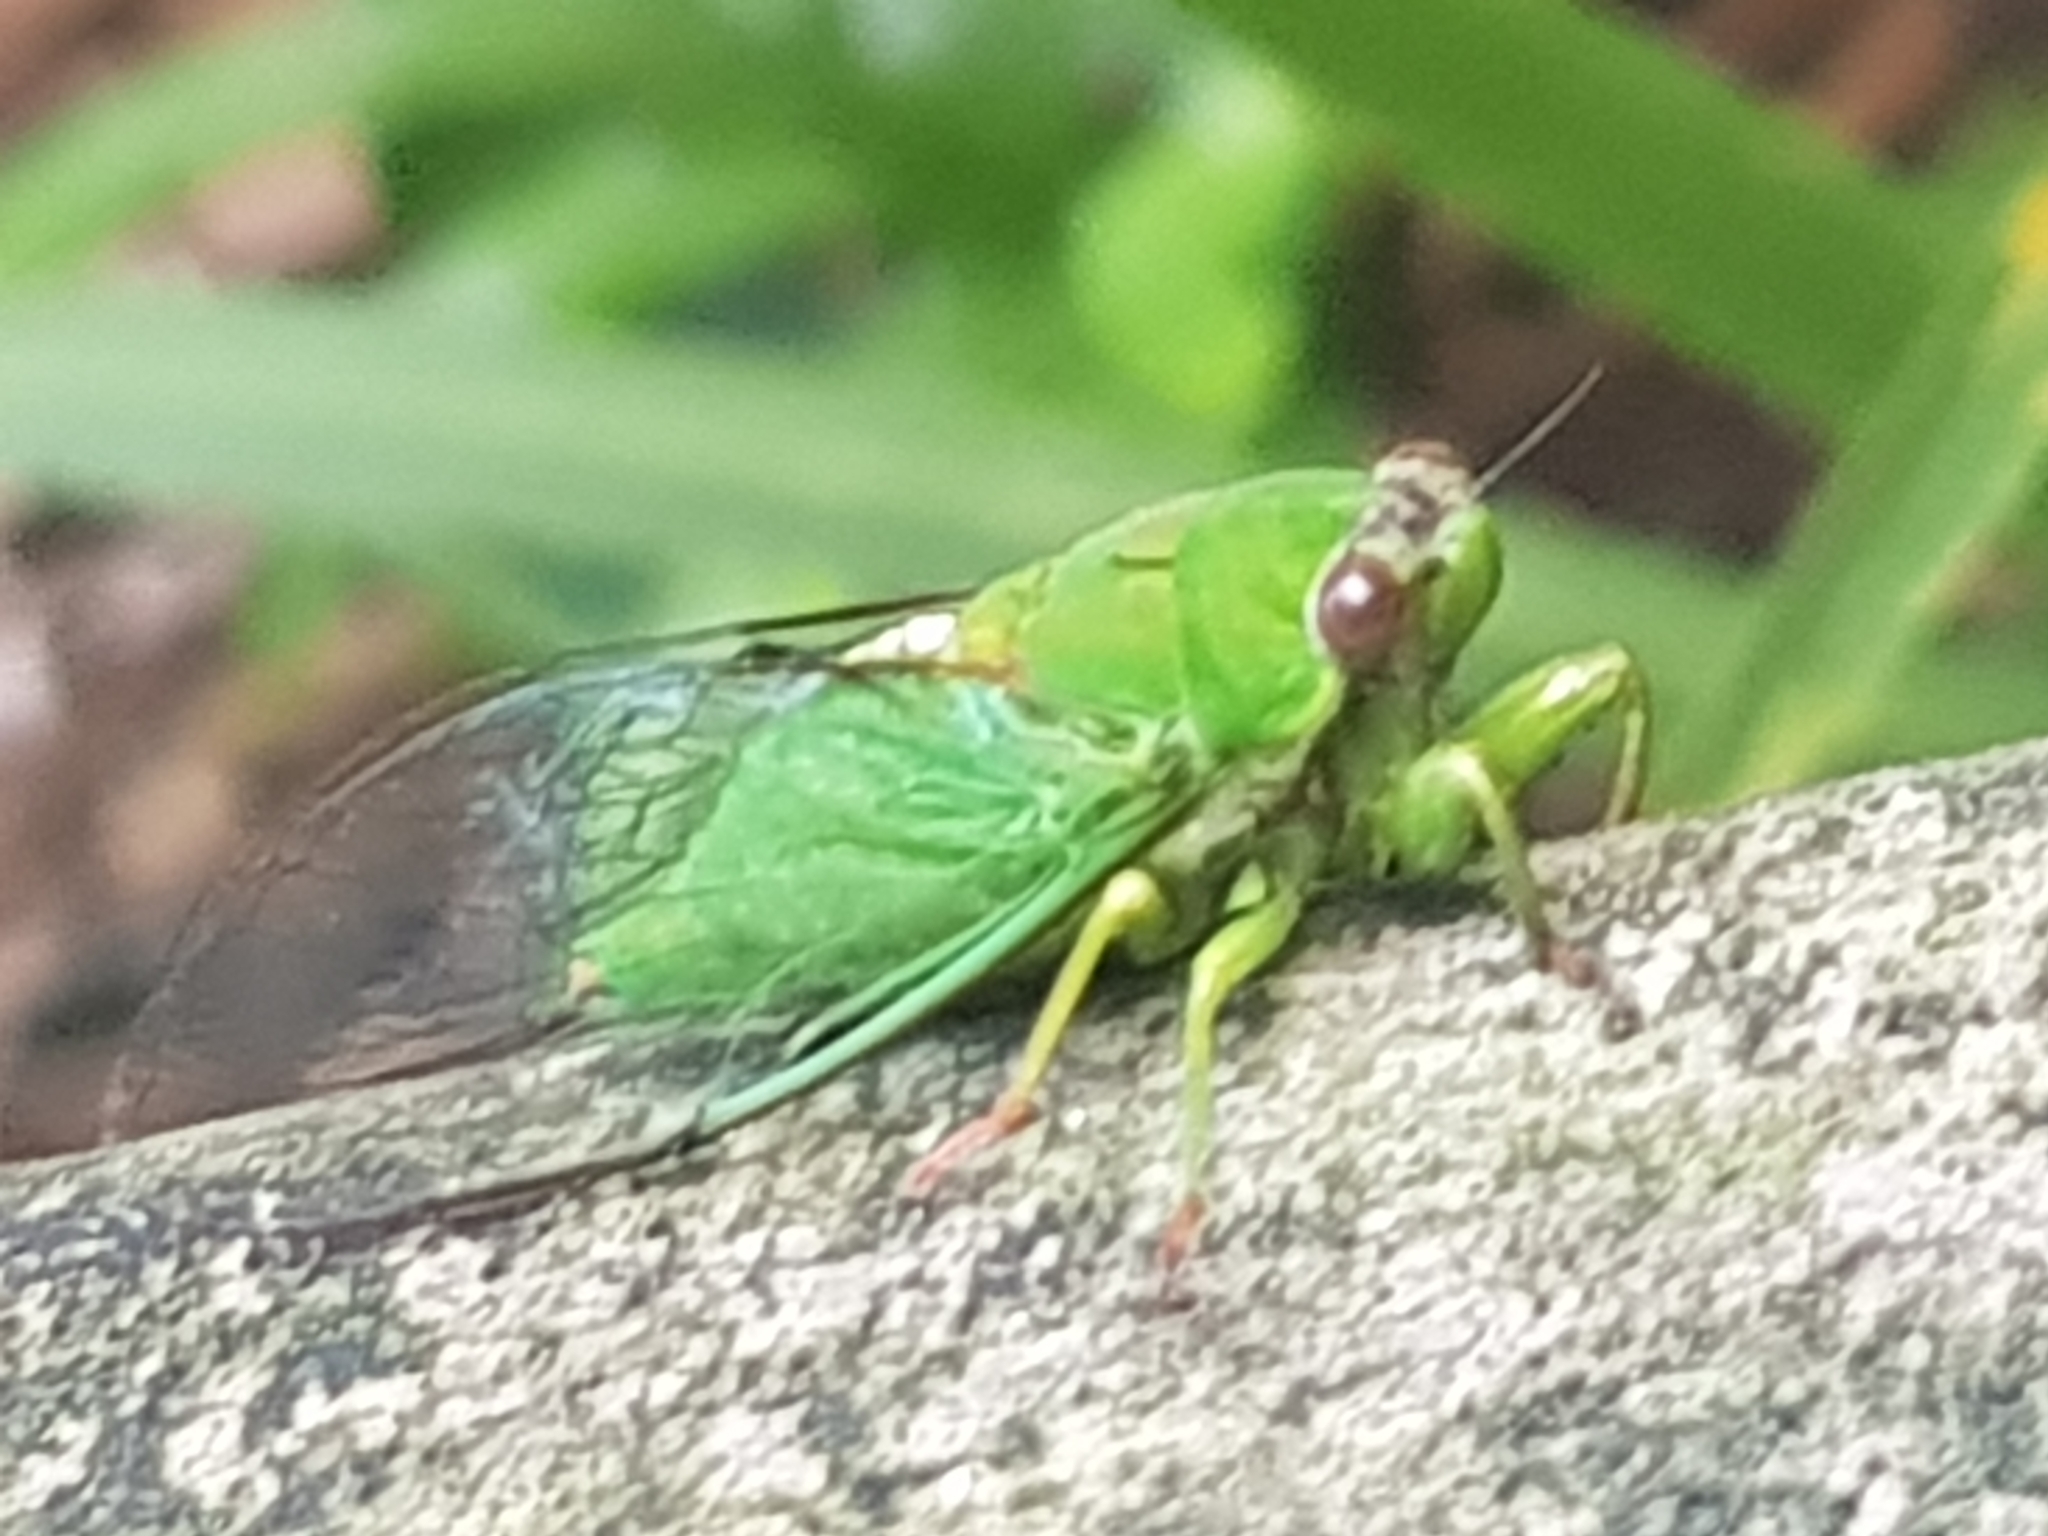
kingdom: Animalia
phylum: Arthropoda
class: Insecta
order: Hemiptera
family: Cicadidae
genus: Kikihia
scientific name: Kikihia ochrina
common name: April green cicada
